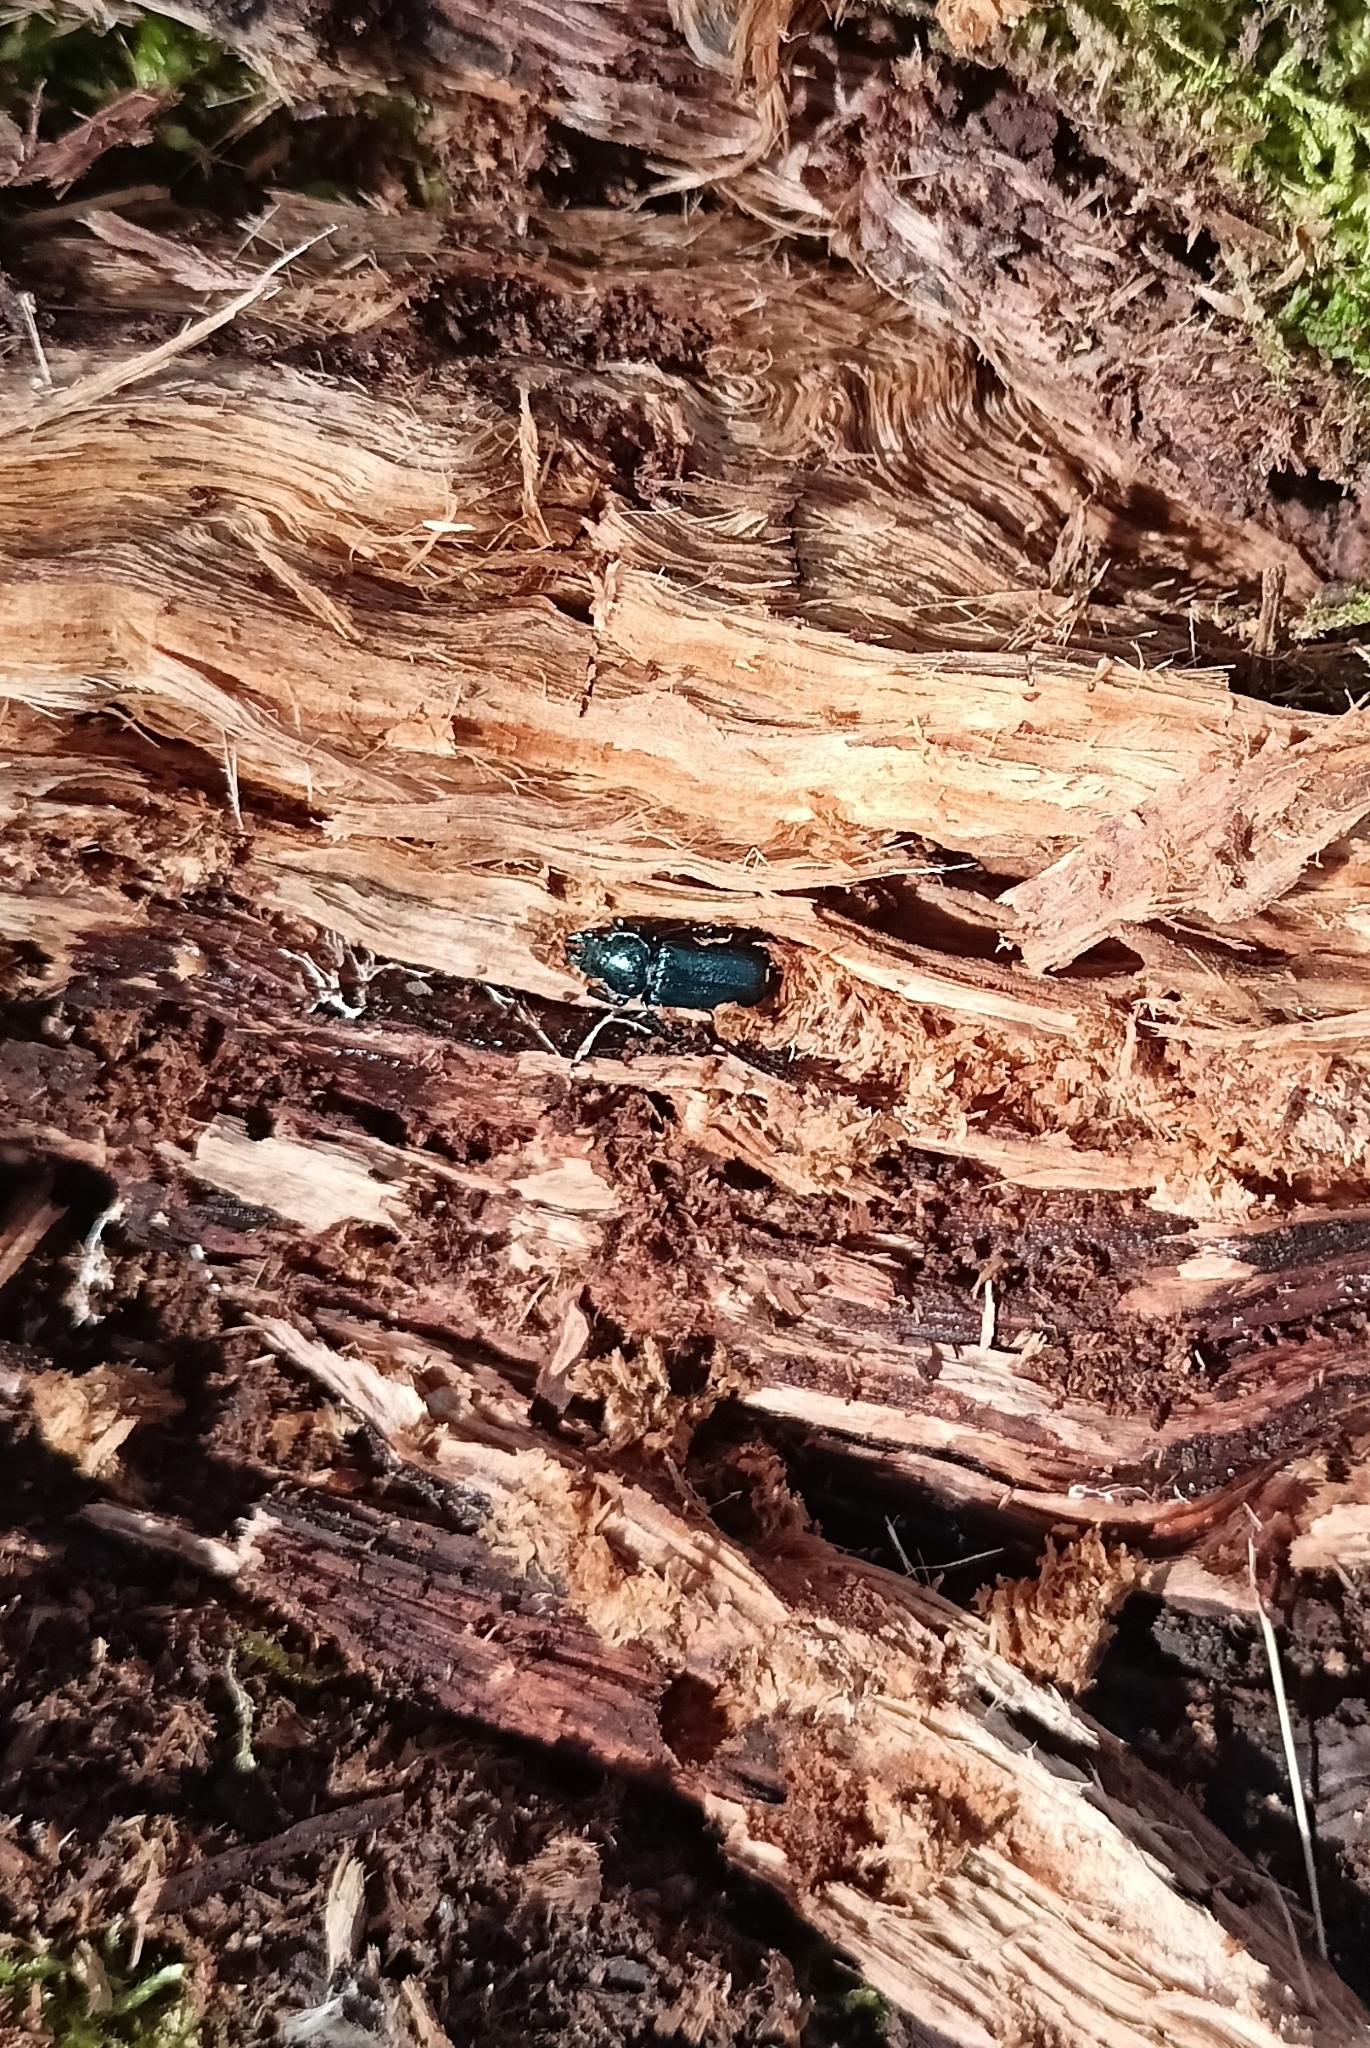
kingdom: Animalia
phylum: Arthropoda
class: Insecta
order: Coleoptera
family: Lucanidae
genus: Platycerus
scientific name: Platycerus caraboides
